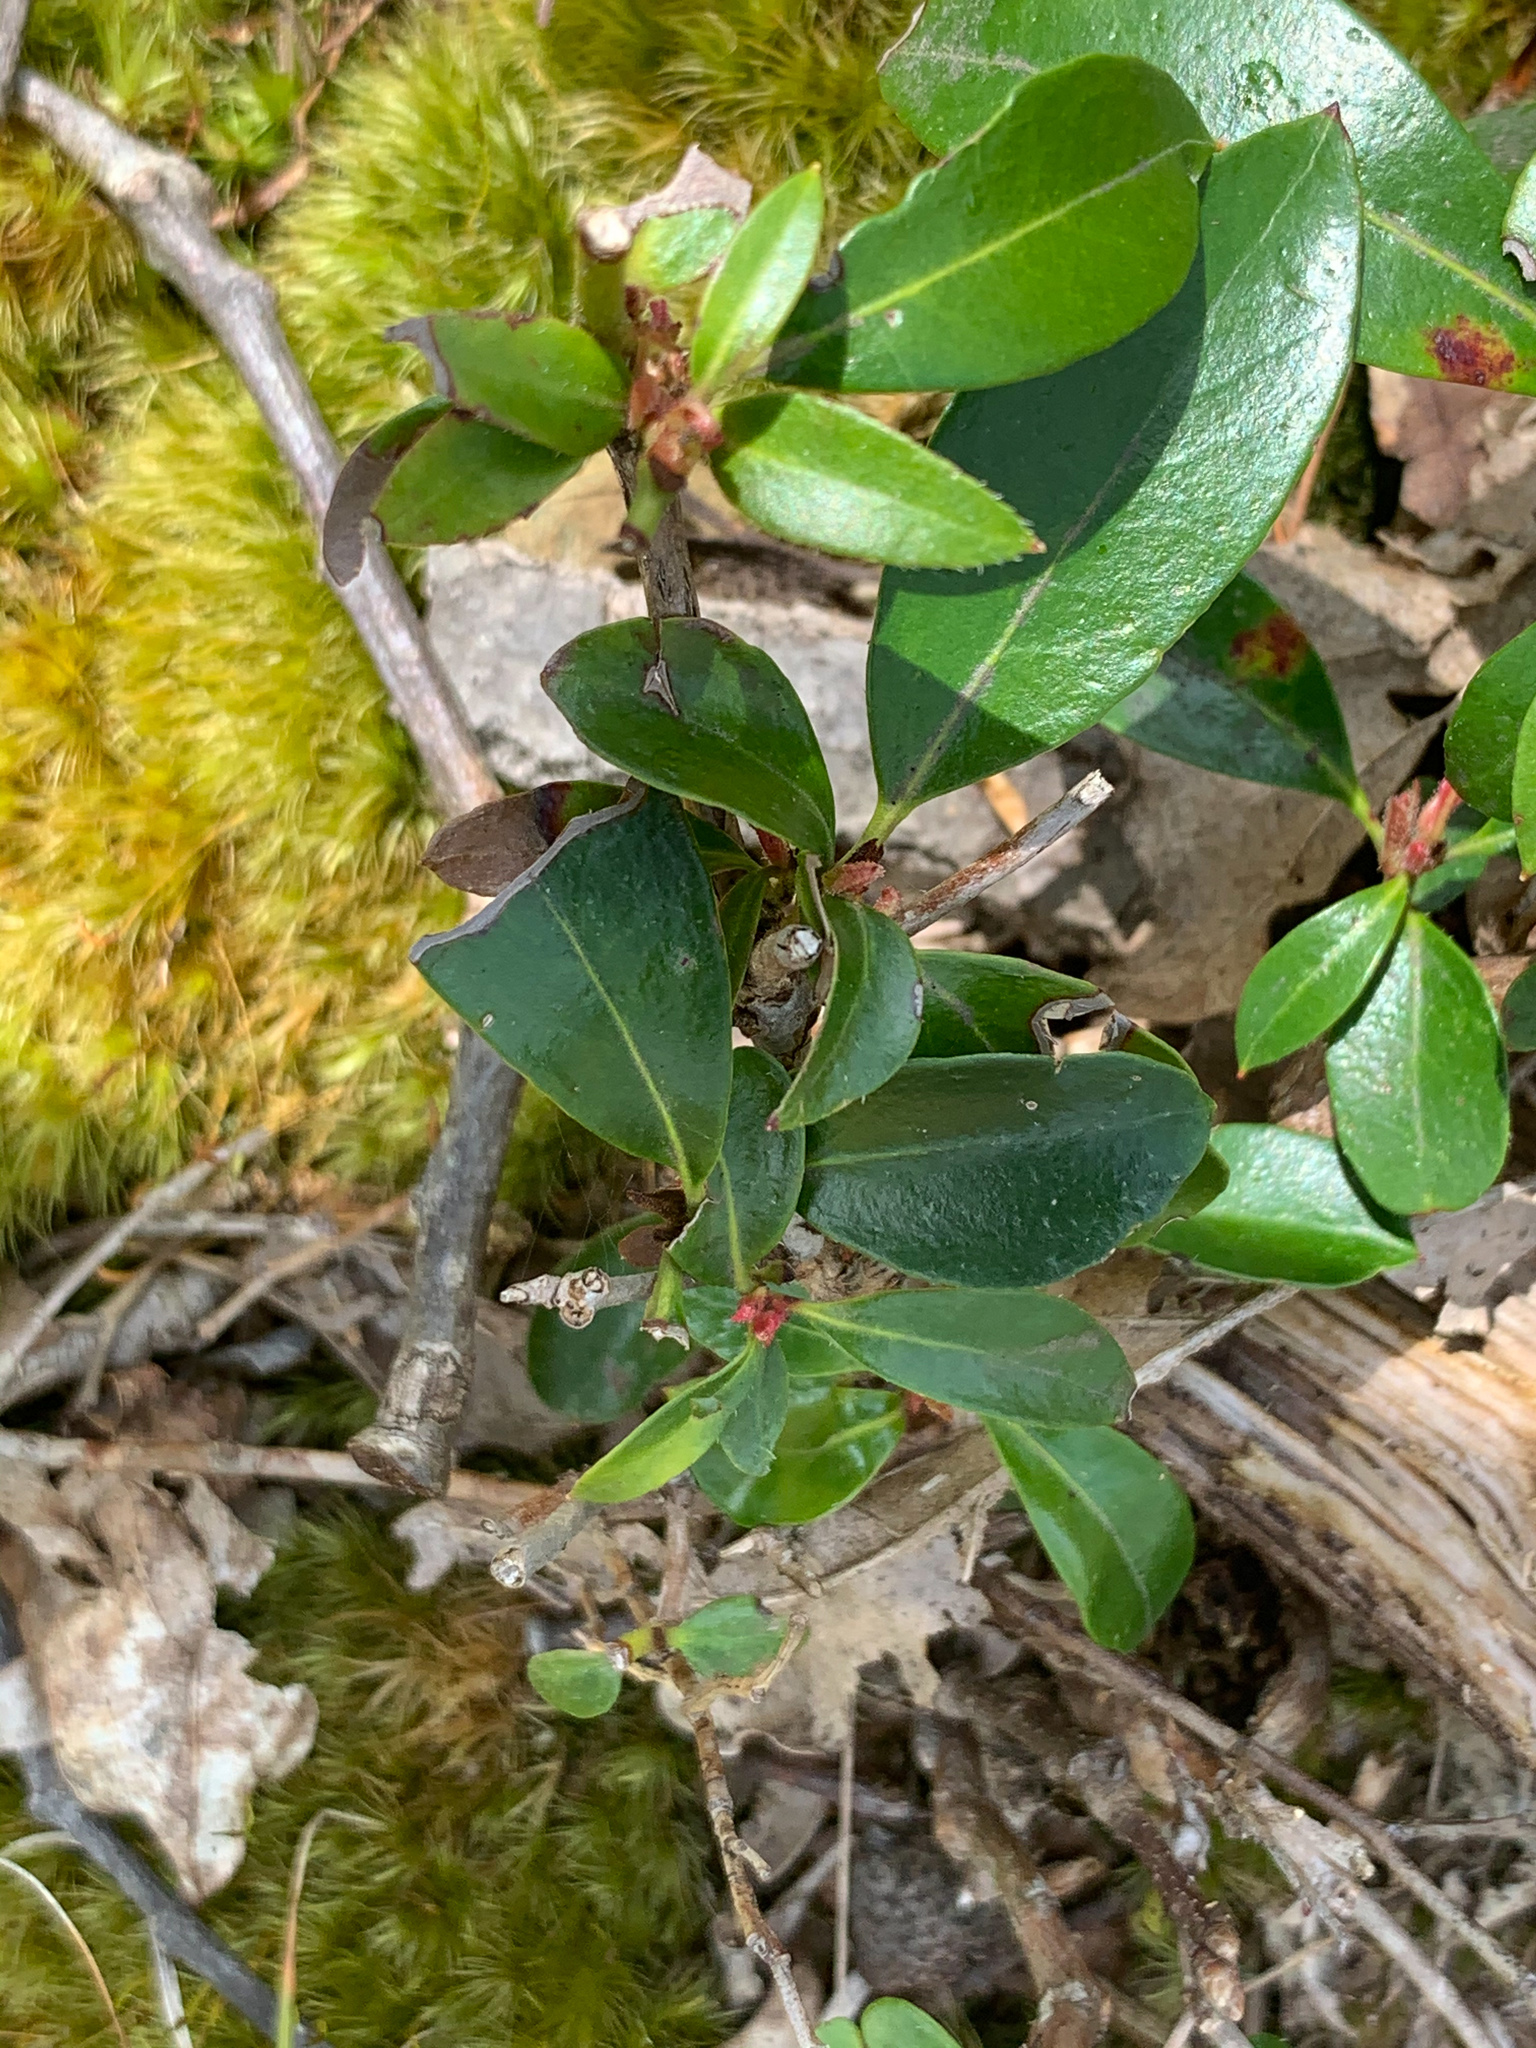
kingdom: Plantae
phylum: Tracheophyta
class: Magnoliopsida
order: Ericales
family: Ericaceae
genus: Kalmia
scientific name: Kalmia latifolia
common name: Mountain-laurel
